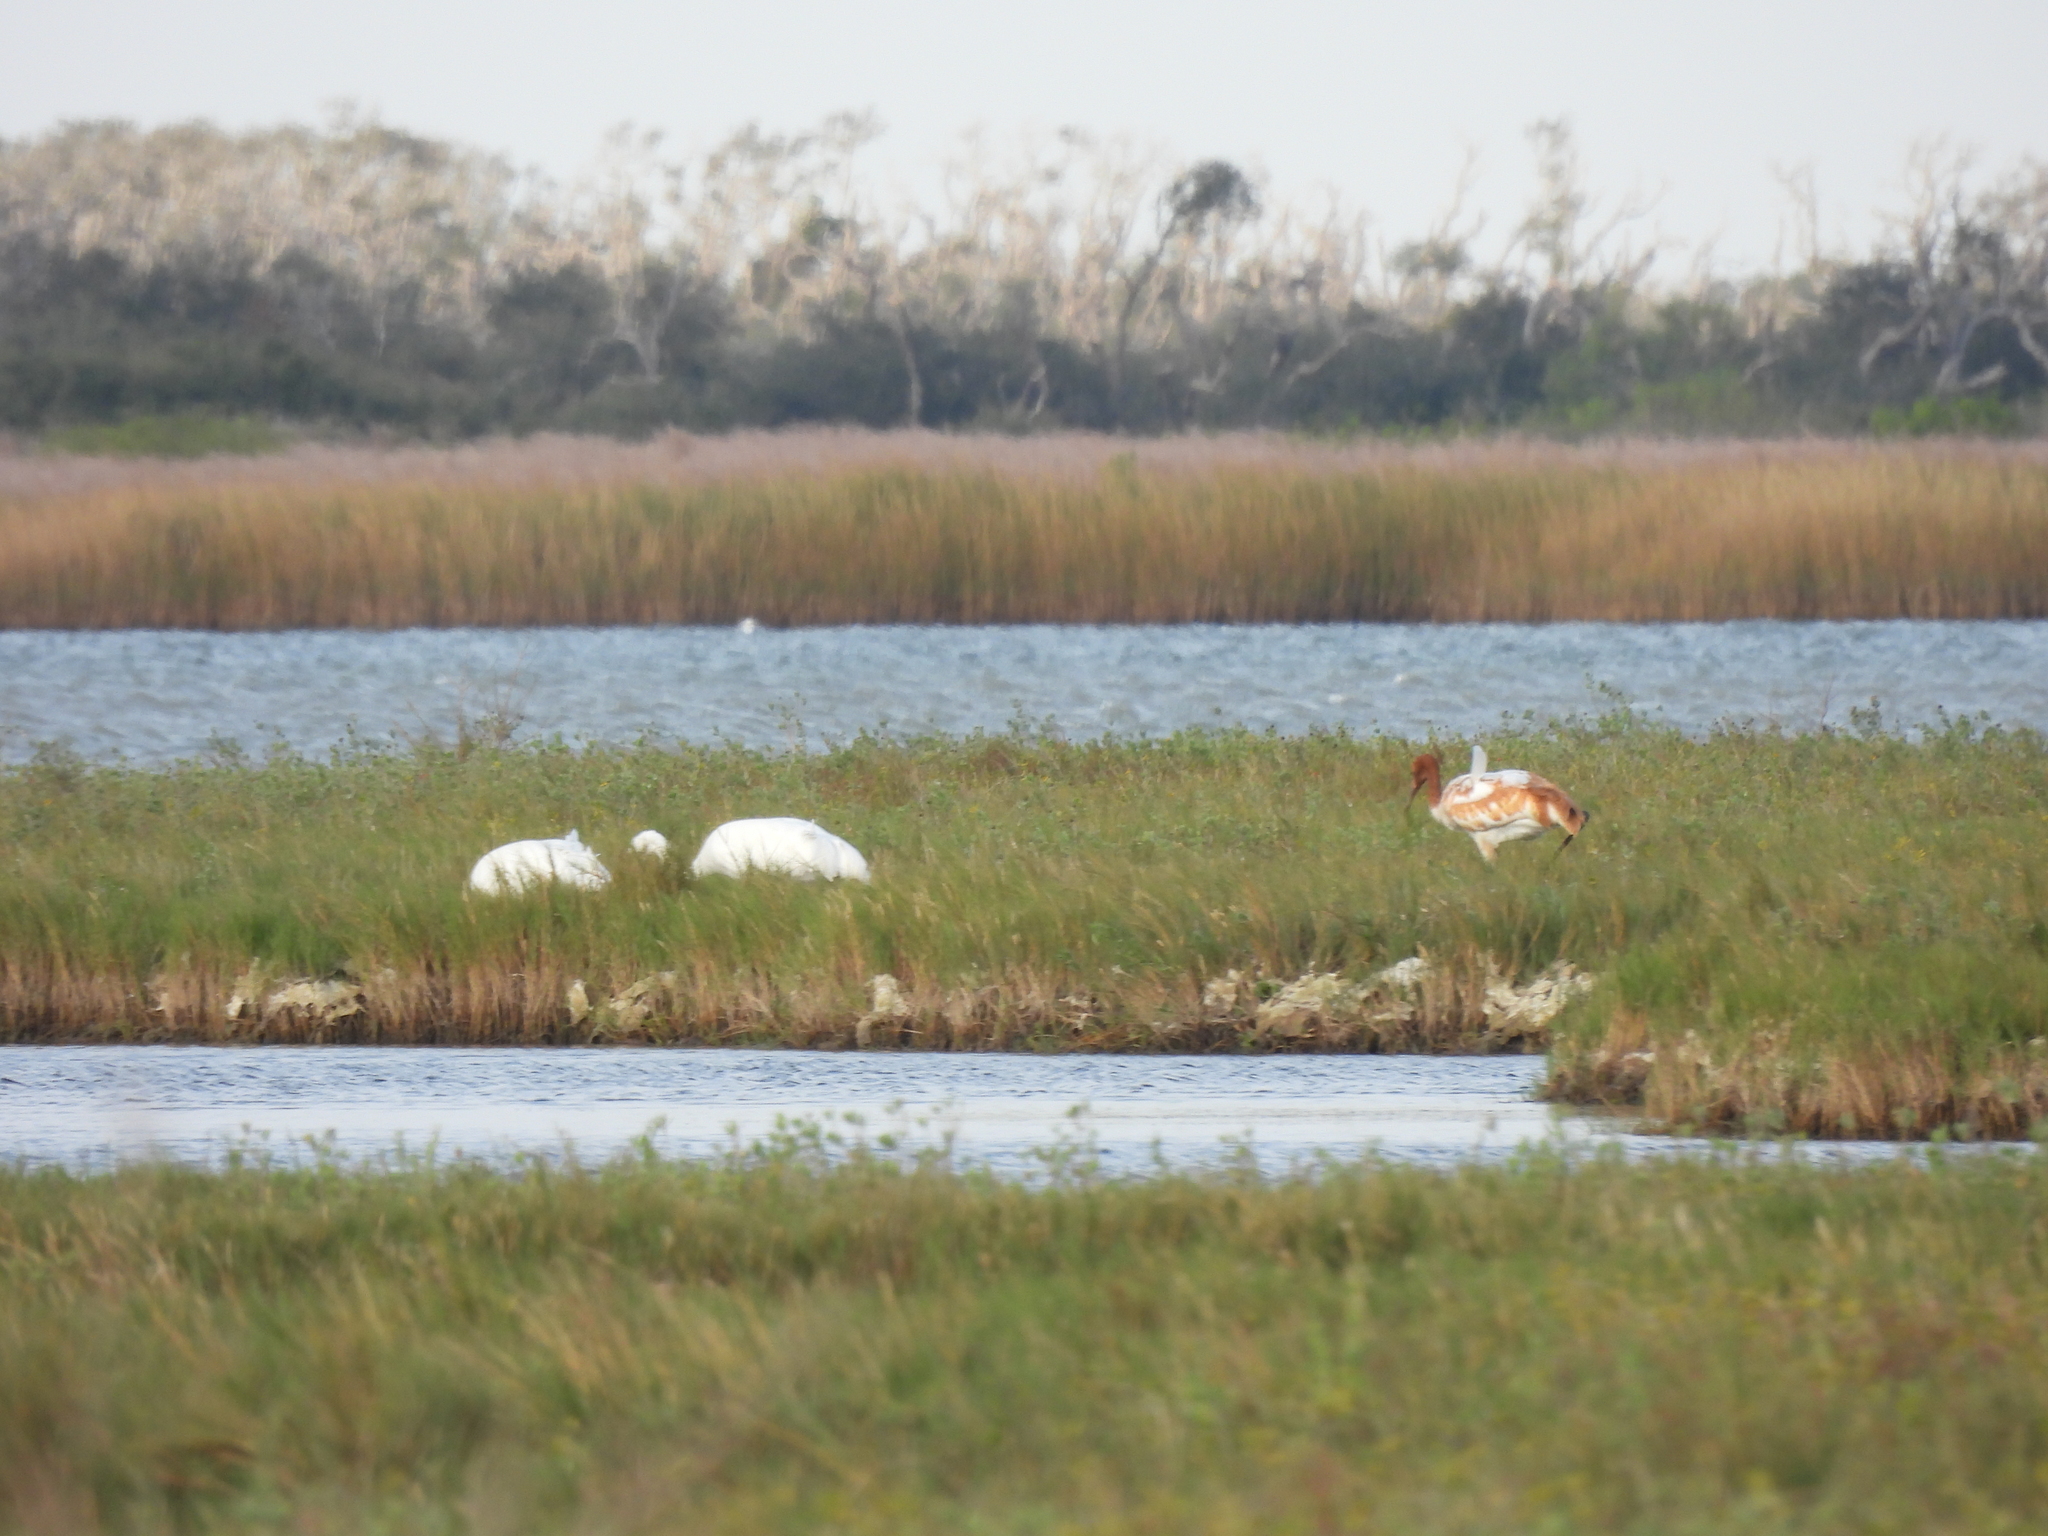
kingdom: Animalia
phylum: Chordata
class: Aves
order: Gruiformes
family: Gruidae
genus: Grus
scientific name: Grus americana
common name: Whooping crane
